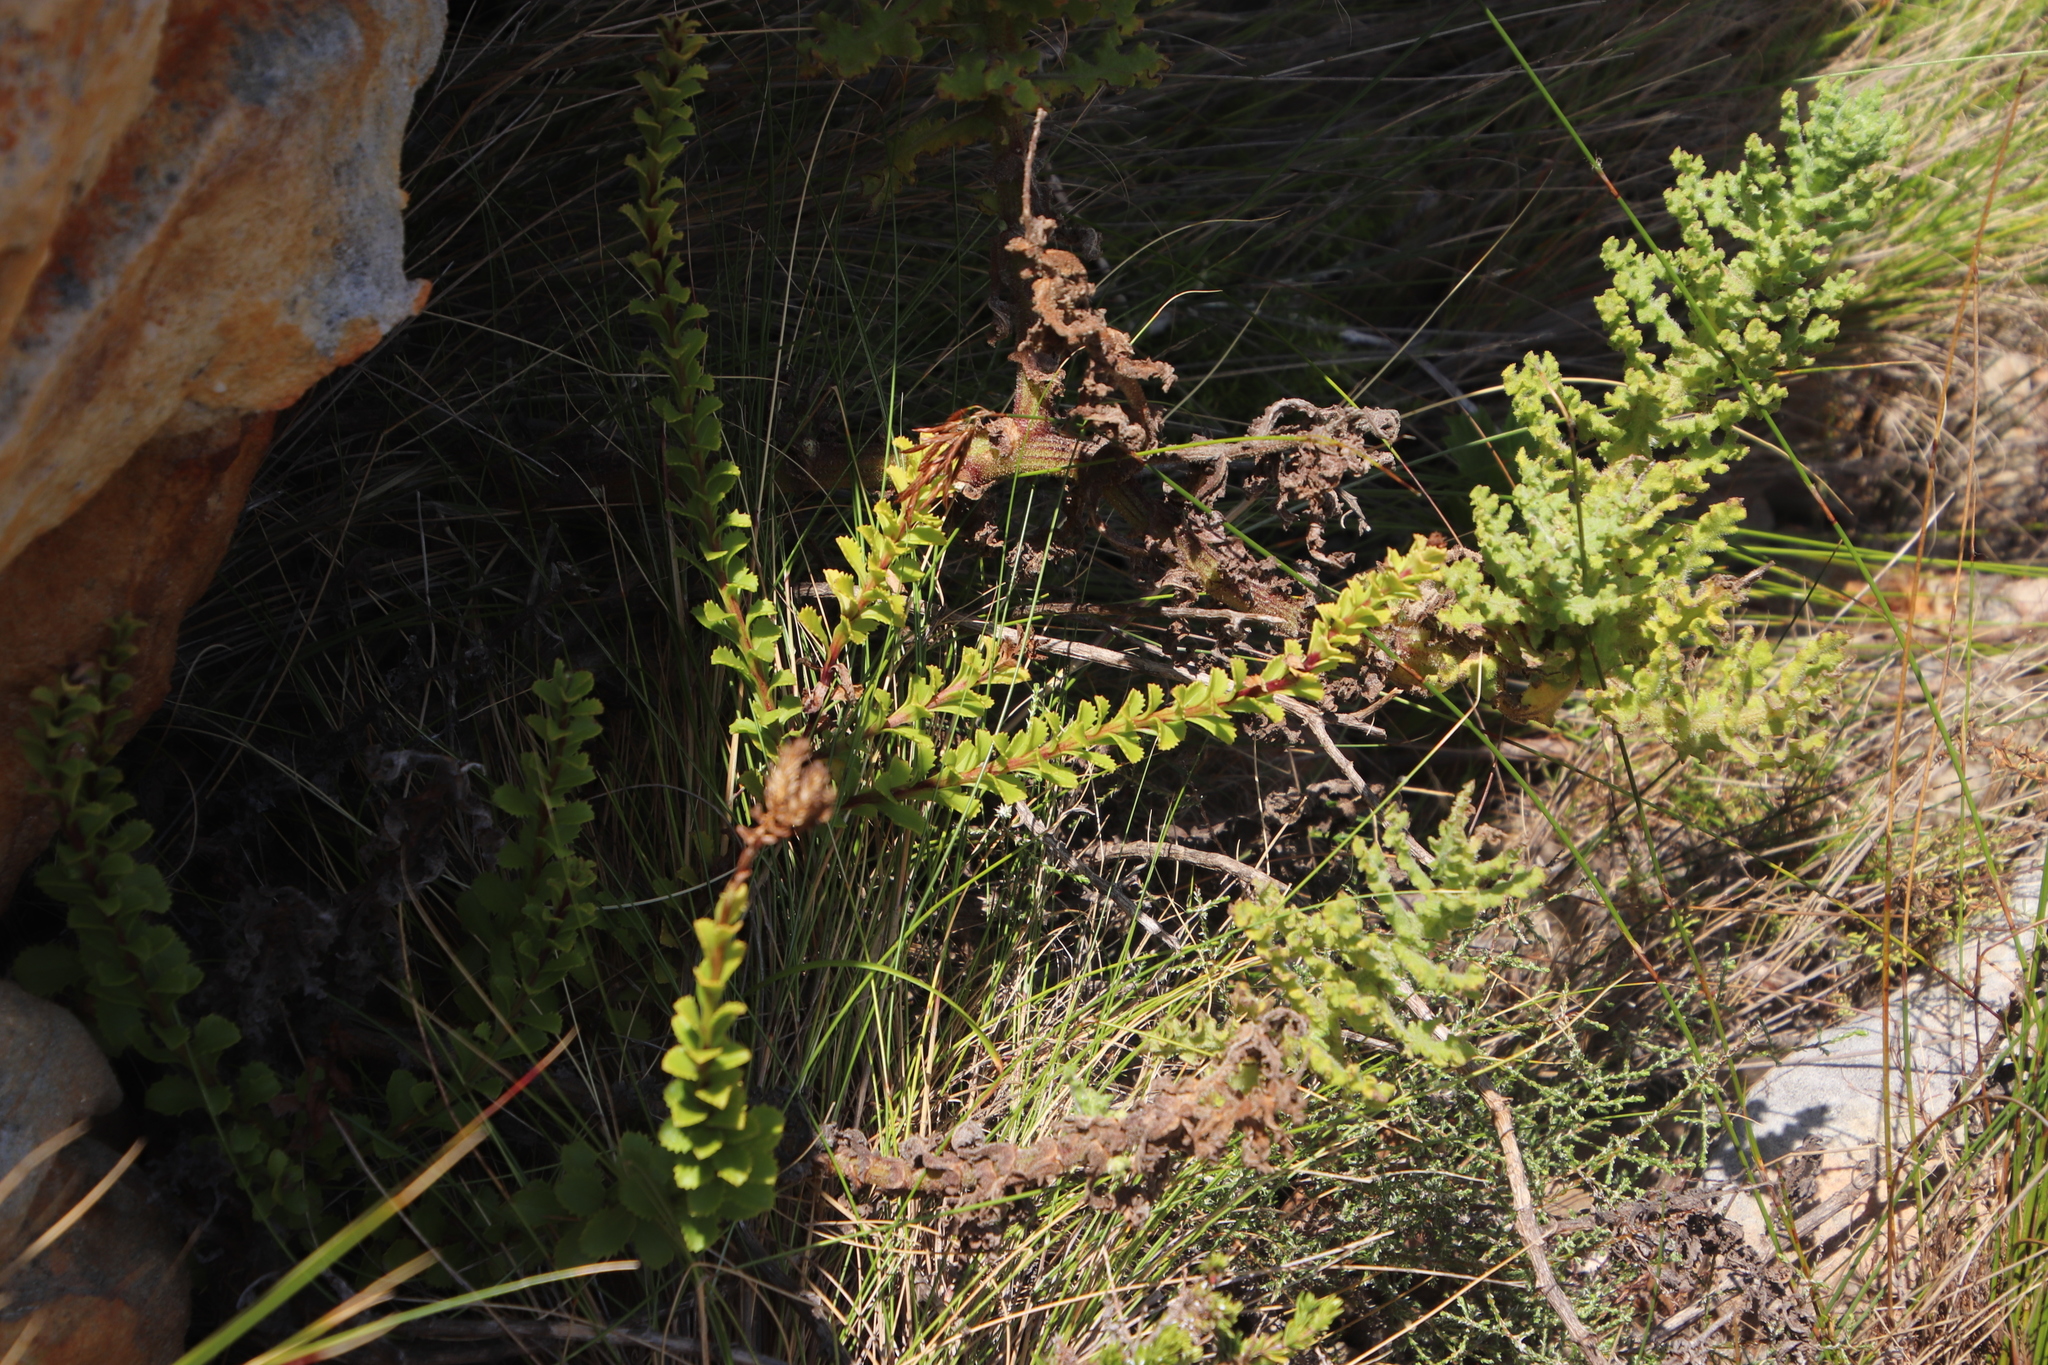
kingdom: Plantae
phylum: Tracheophyta
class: Magnoliopsida
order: Lamiales
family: Scrophulariaceae
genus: Pseudoselago
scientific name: Pseudoselago serrata
